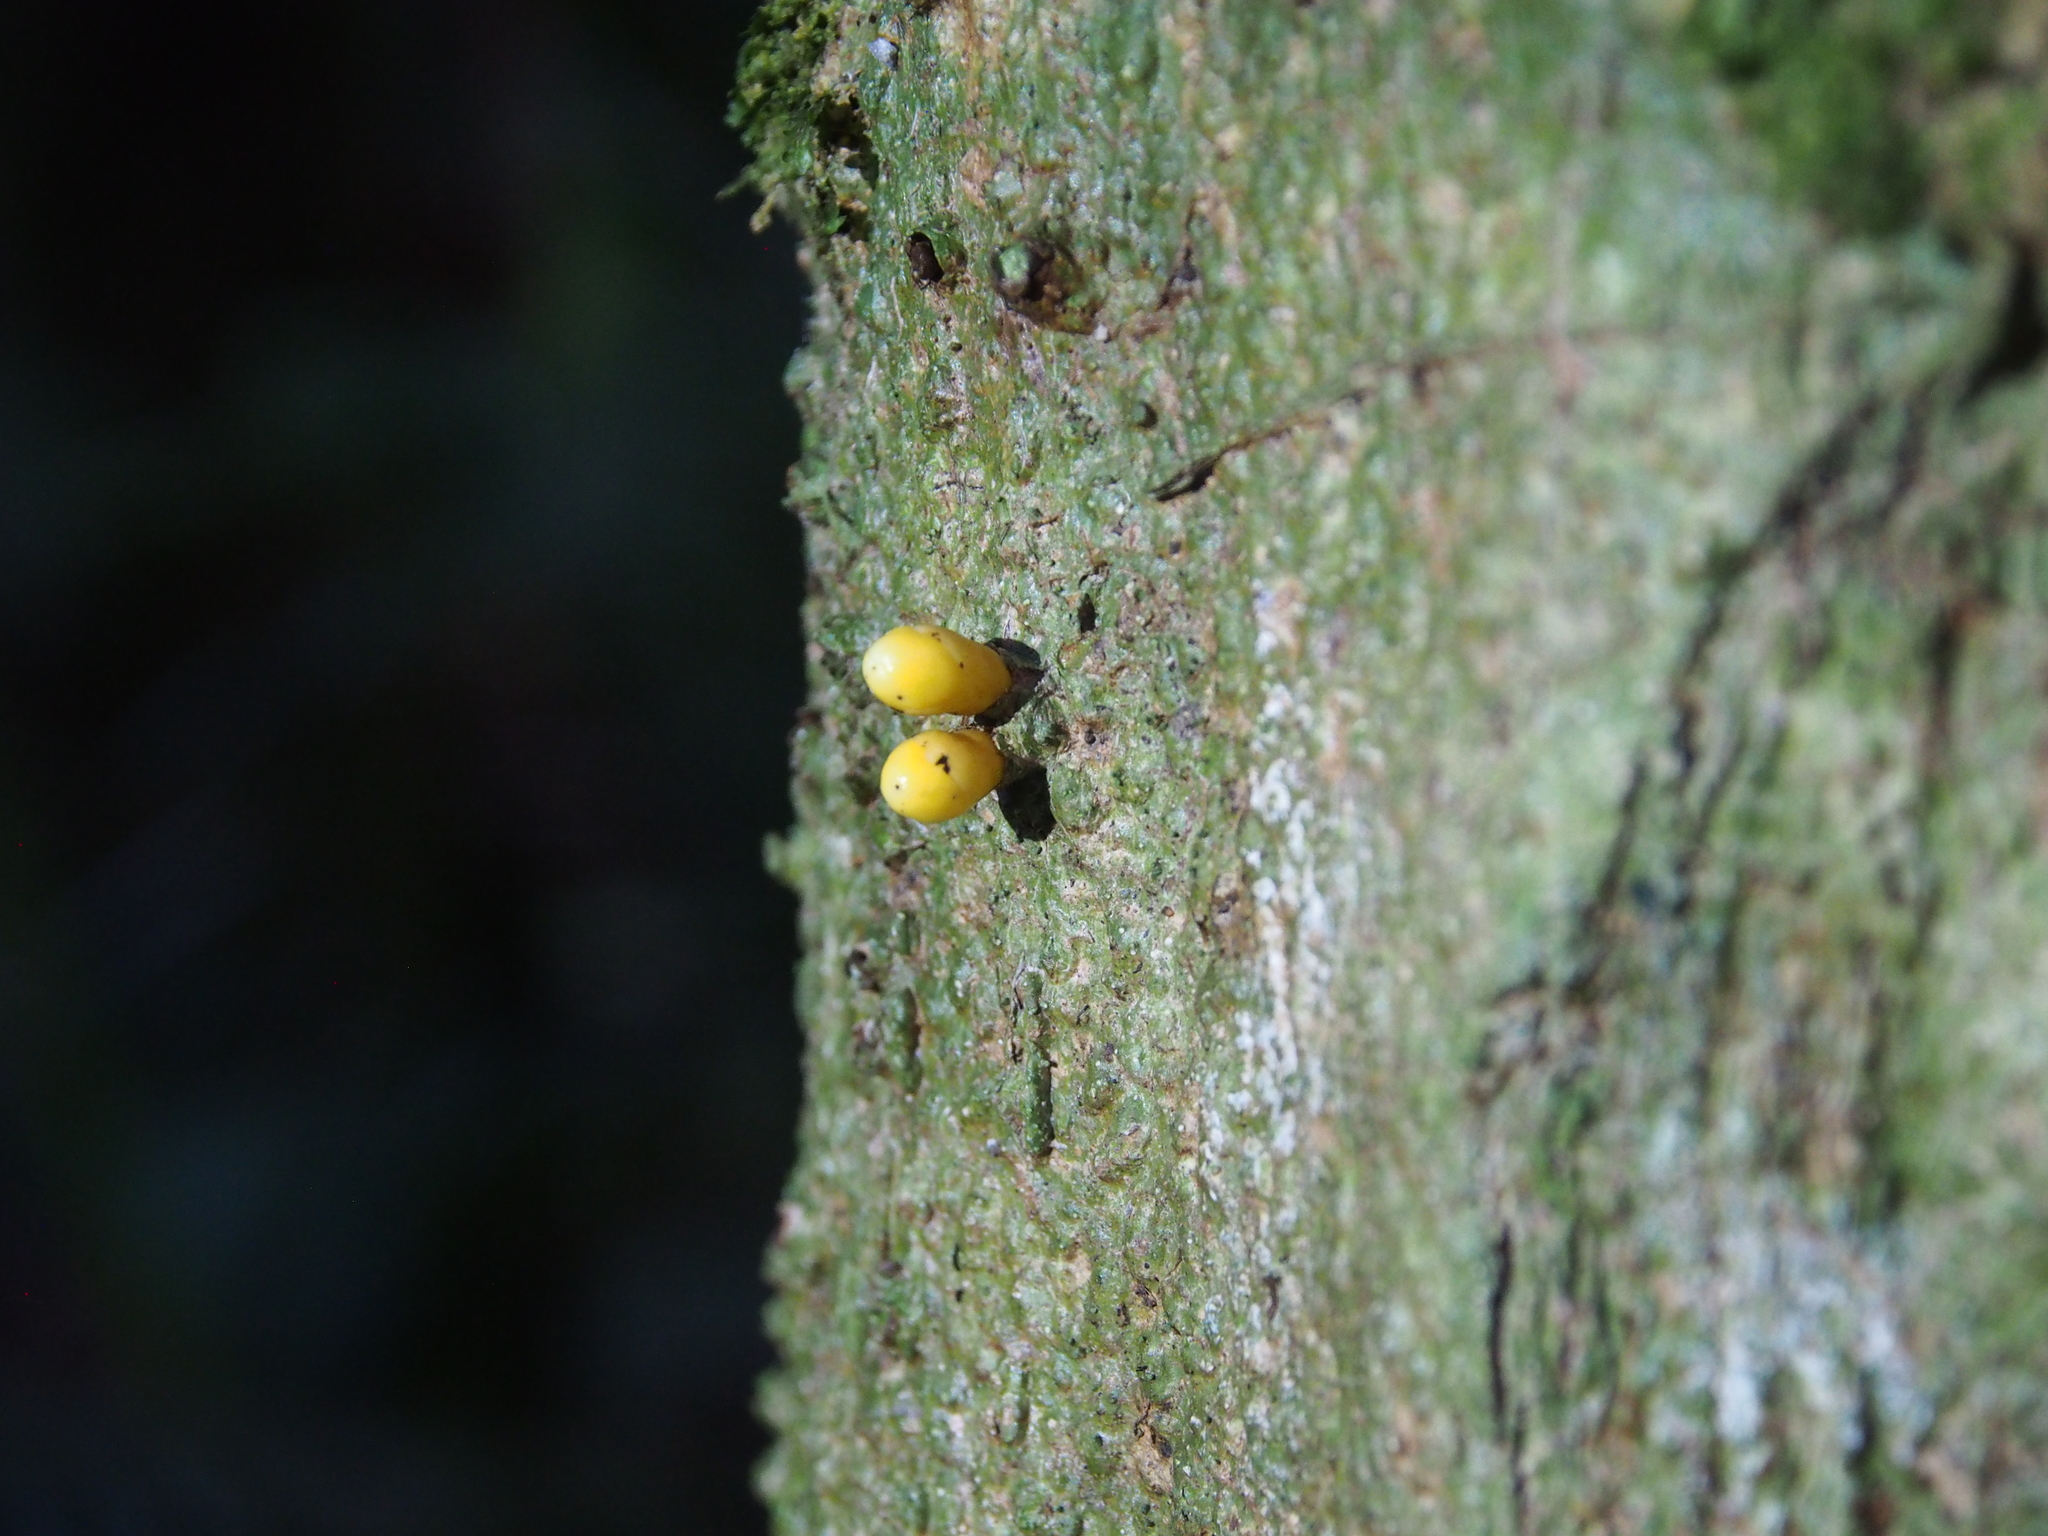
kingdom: Plantae
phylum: Tracheophyta
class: Magnoliopsida
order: Cucurbitales
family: Apodanthaceae
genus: Apodanthes
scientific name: Apodanthes caseariae
